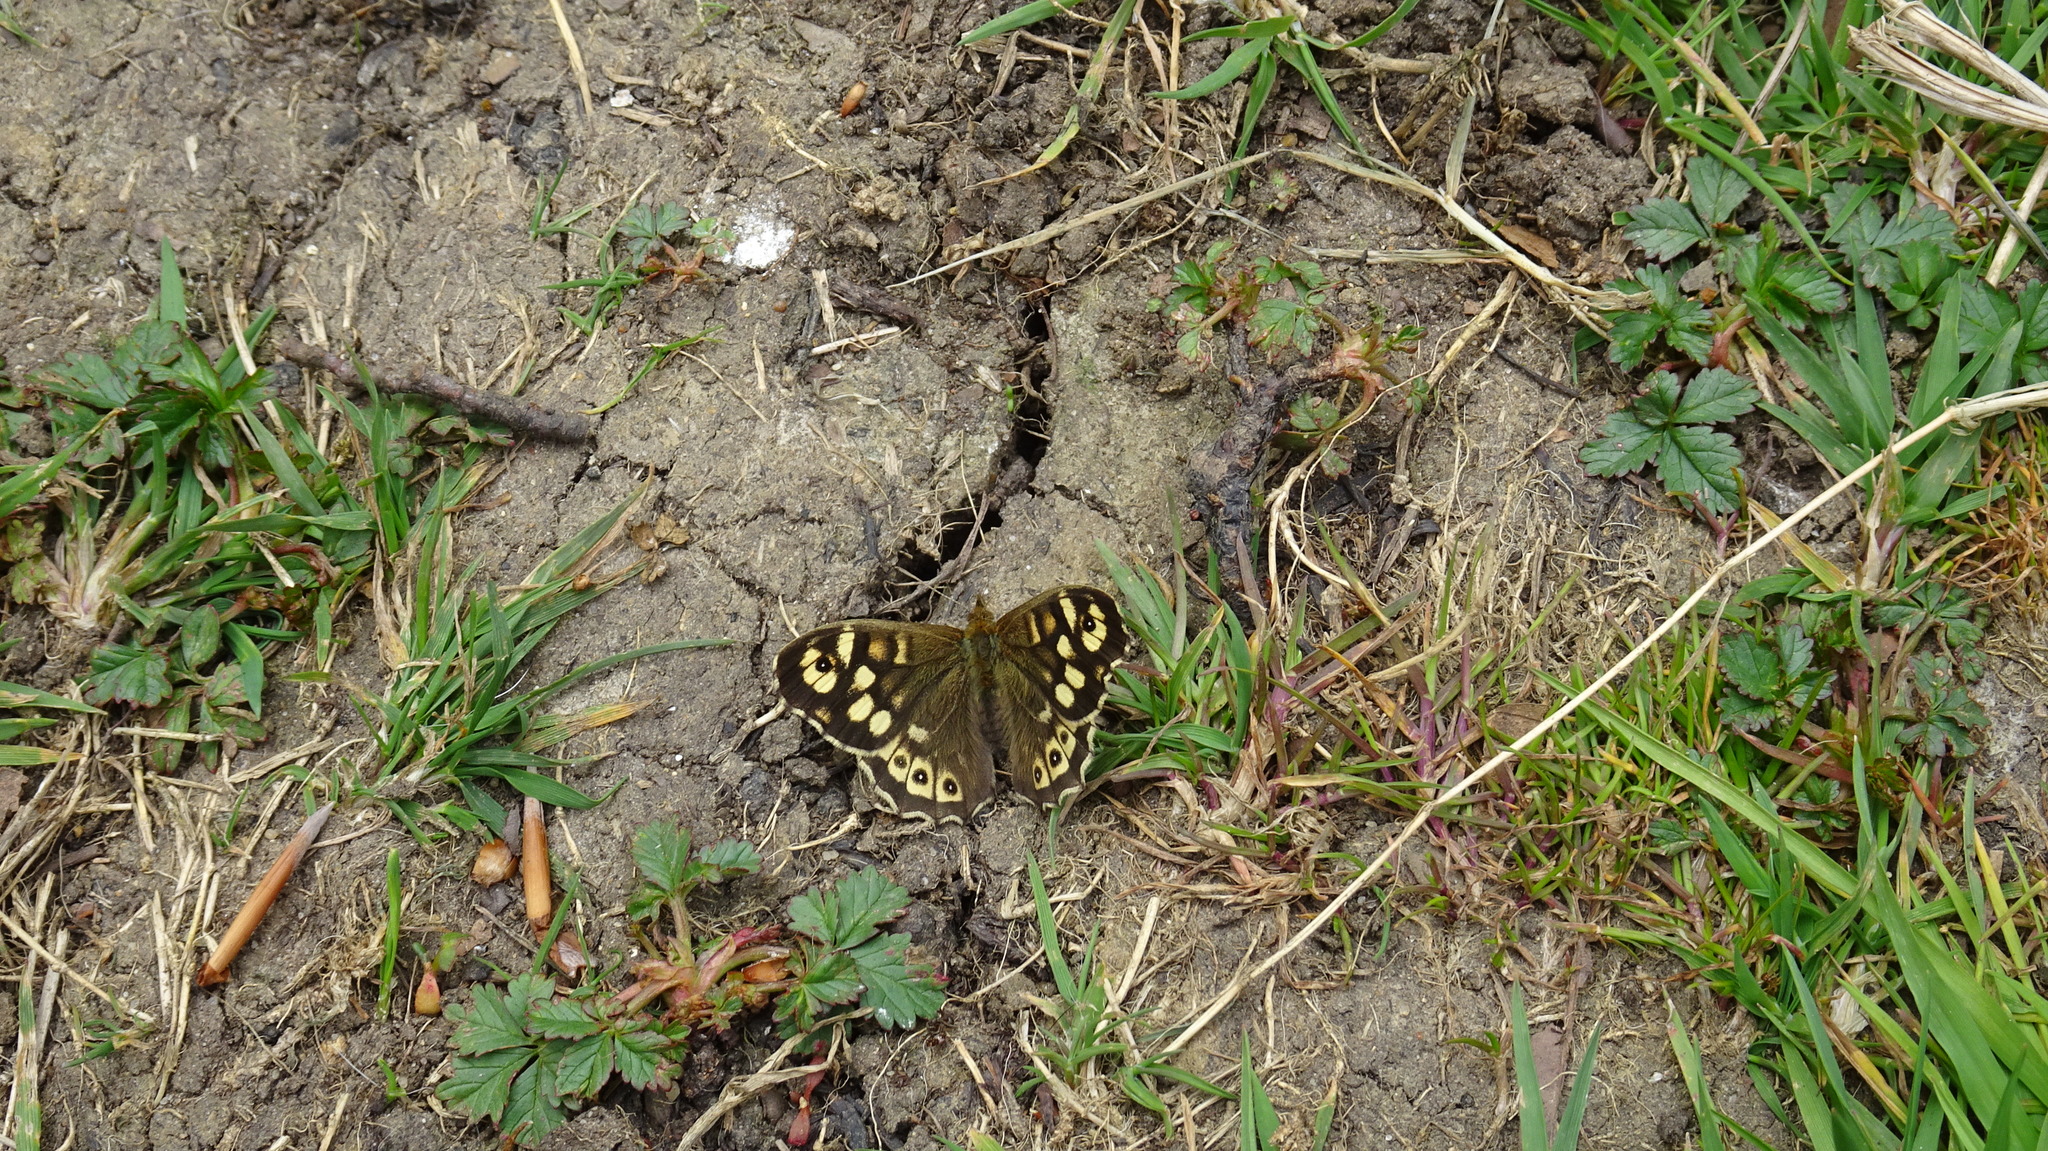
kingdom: Animalia
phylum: Arthropoda
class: Insecta
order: Lepidoptera
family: Nymphalidae
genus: Pararge
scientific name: Pararge aegeria
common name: Speckled wood
